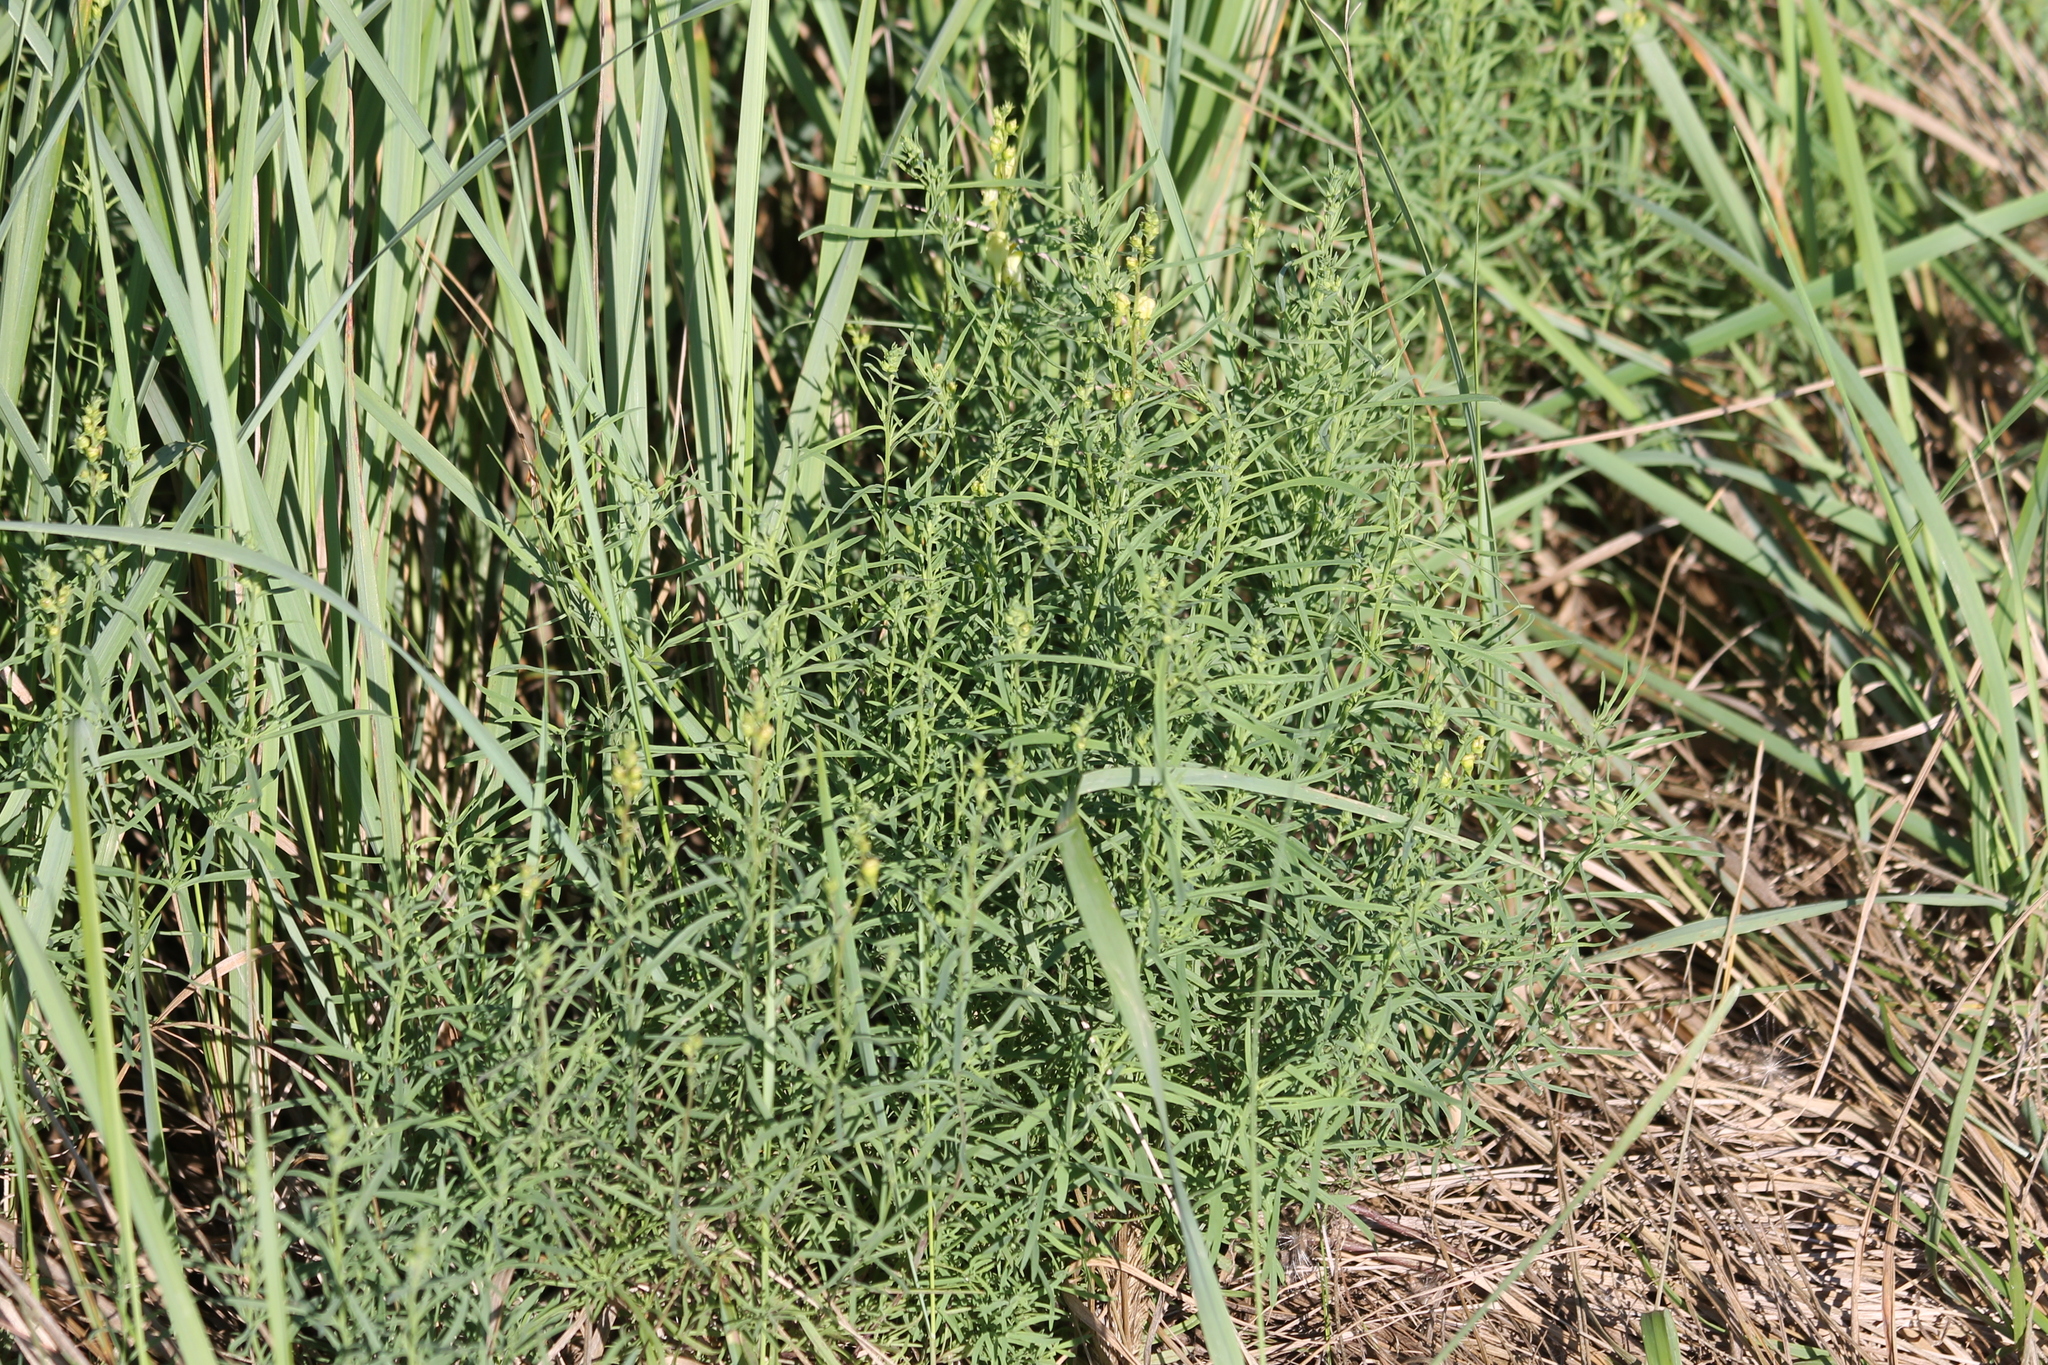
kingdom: Plantae
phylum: Tracheophyta
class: Magnoliopsida
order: Lamiales
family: Plantaginaceae
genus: Linaria
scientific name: Linaria vulgaris
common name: Butter and eggs
